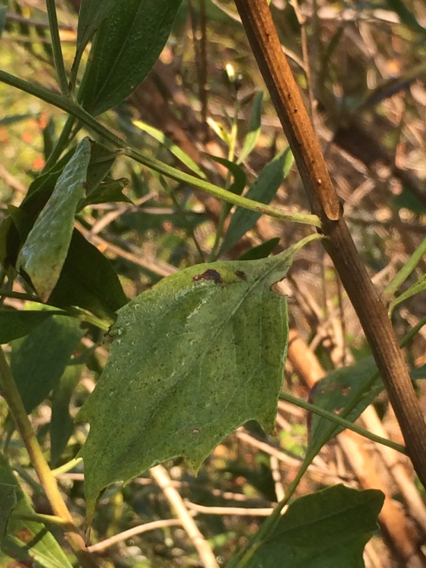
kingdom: Plantae
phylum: Tracheophyta
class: Magnoliopsida
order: Asterales
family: Asteraceae
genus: Baccharis
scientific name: Baccharis halimifolia
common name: Eastern baccharis
